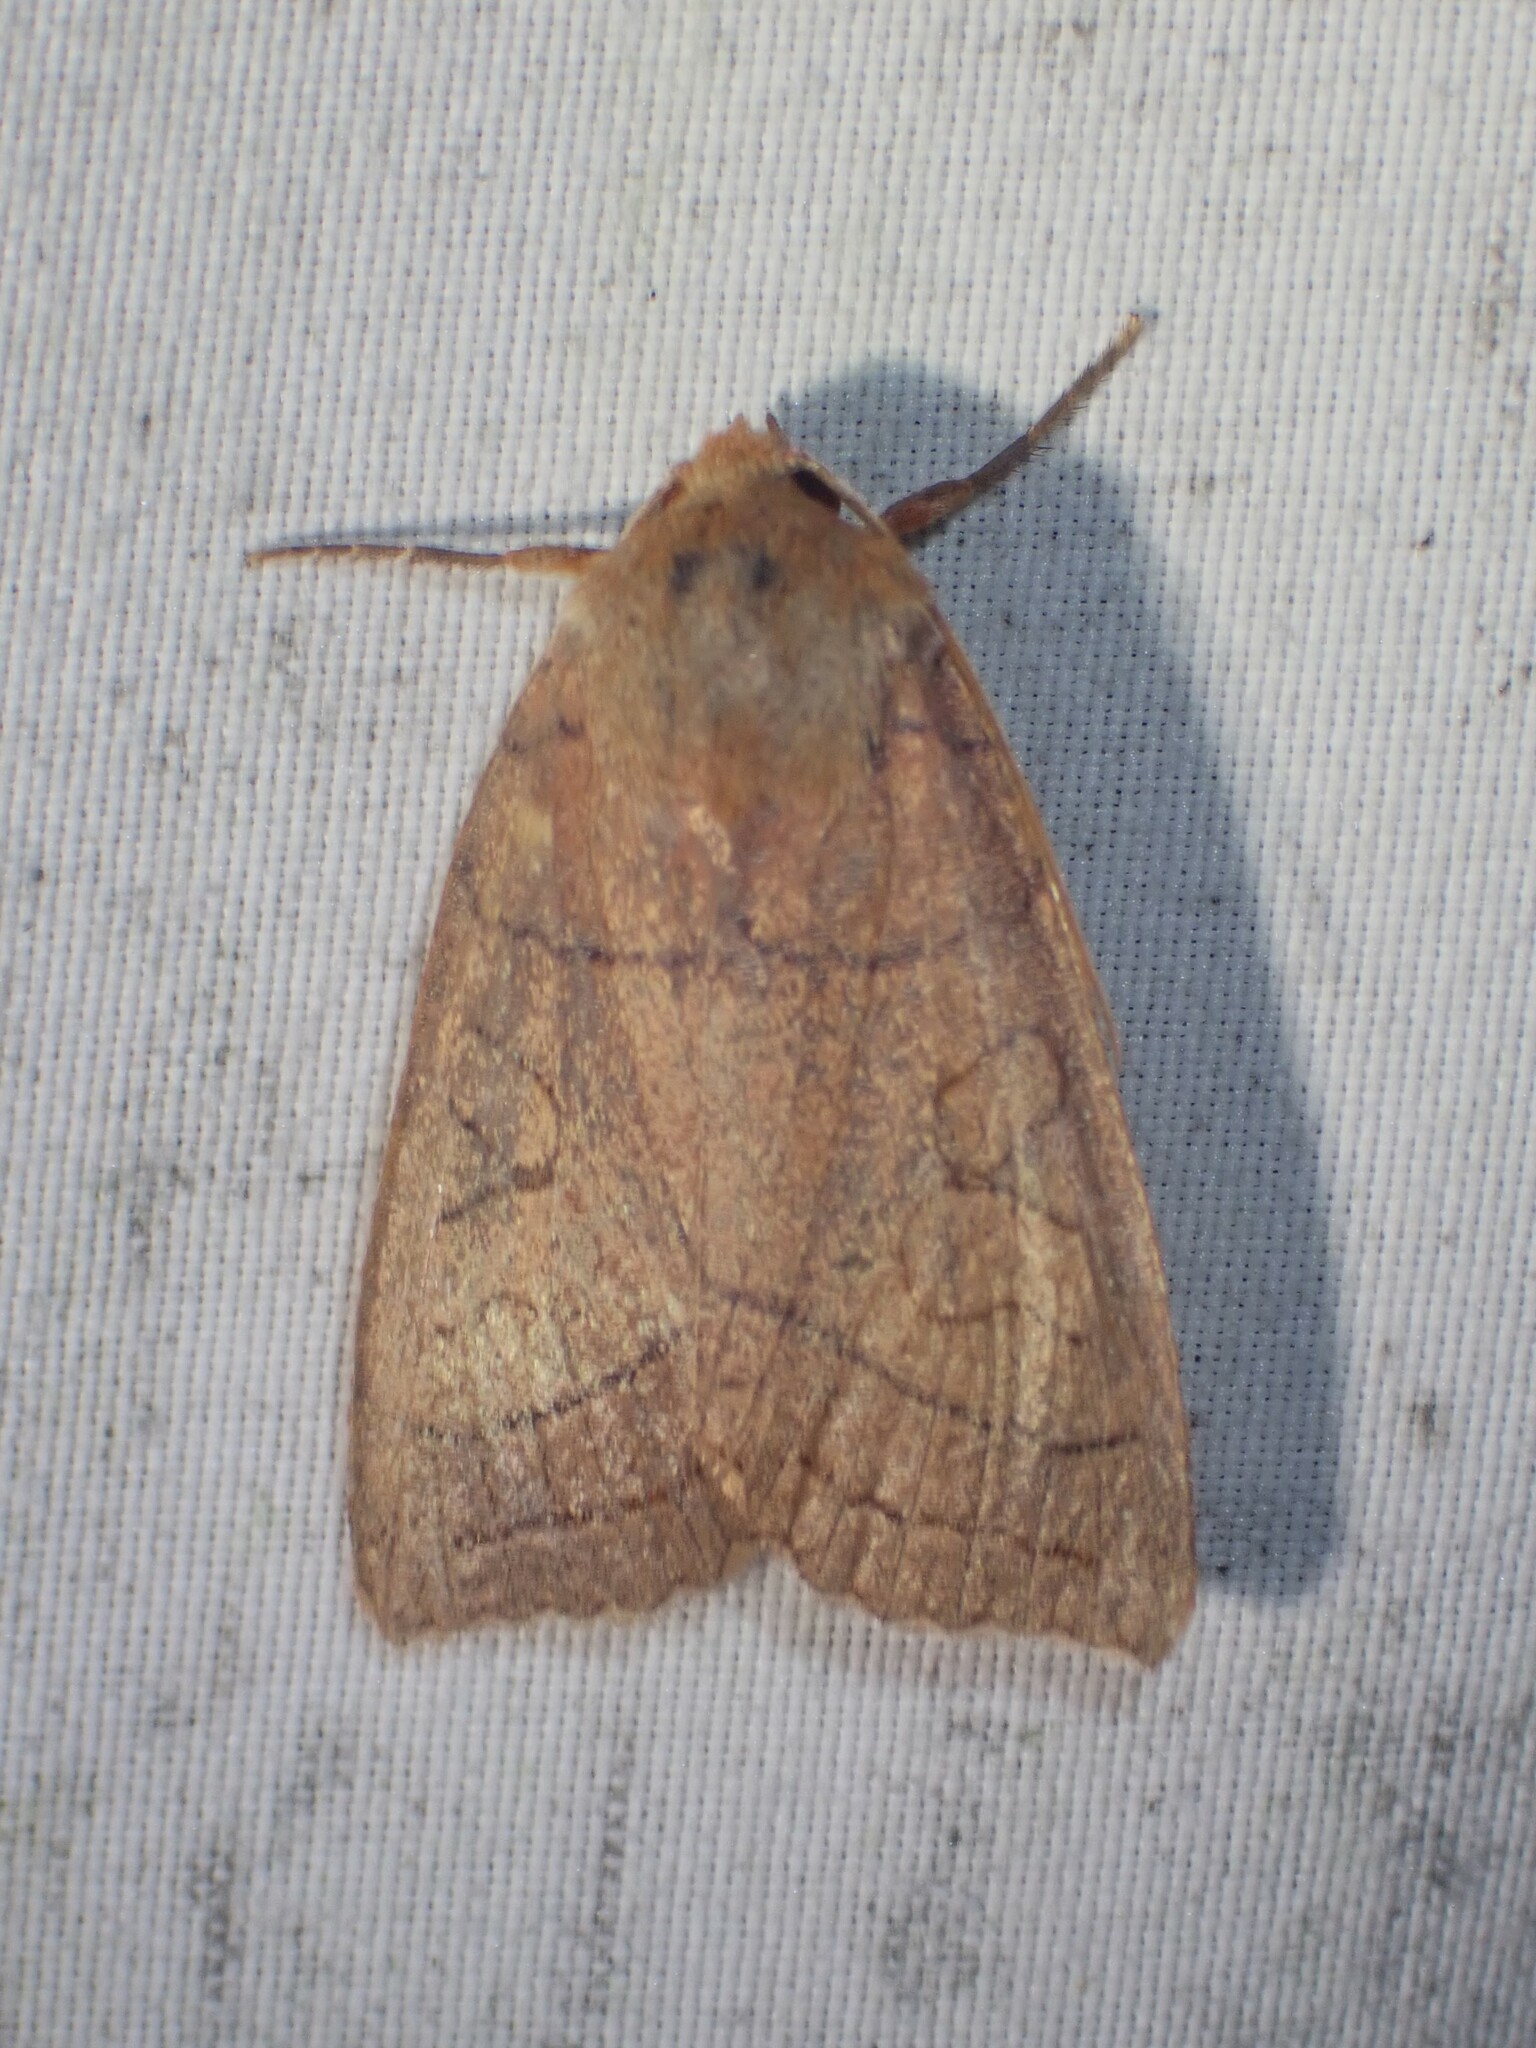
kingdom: Animalia
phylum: Arthropoda
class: Insecta
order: Lepidoptera
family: Noctuidae
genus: Metaxaglaea
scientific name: Metaxaglaea inulta
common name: Unsated sallow
